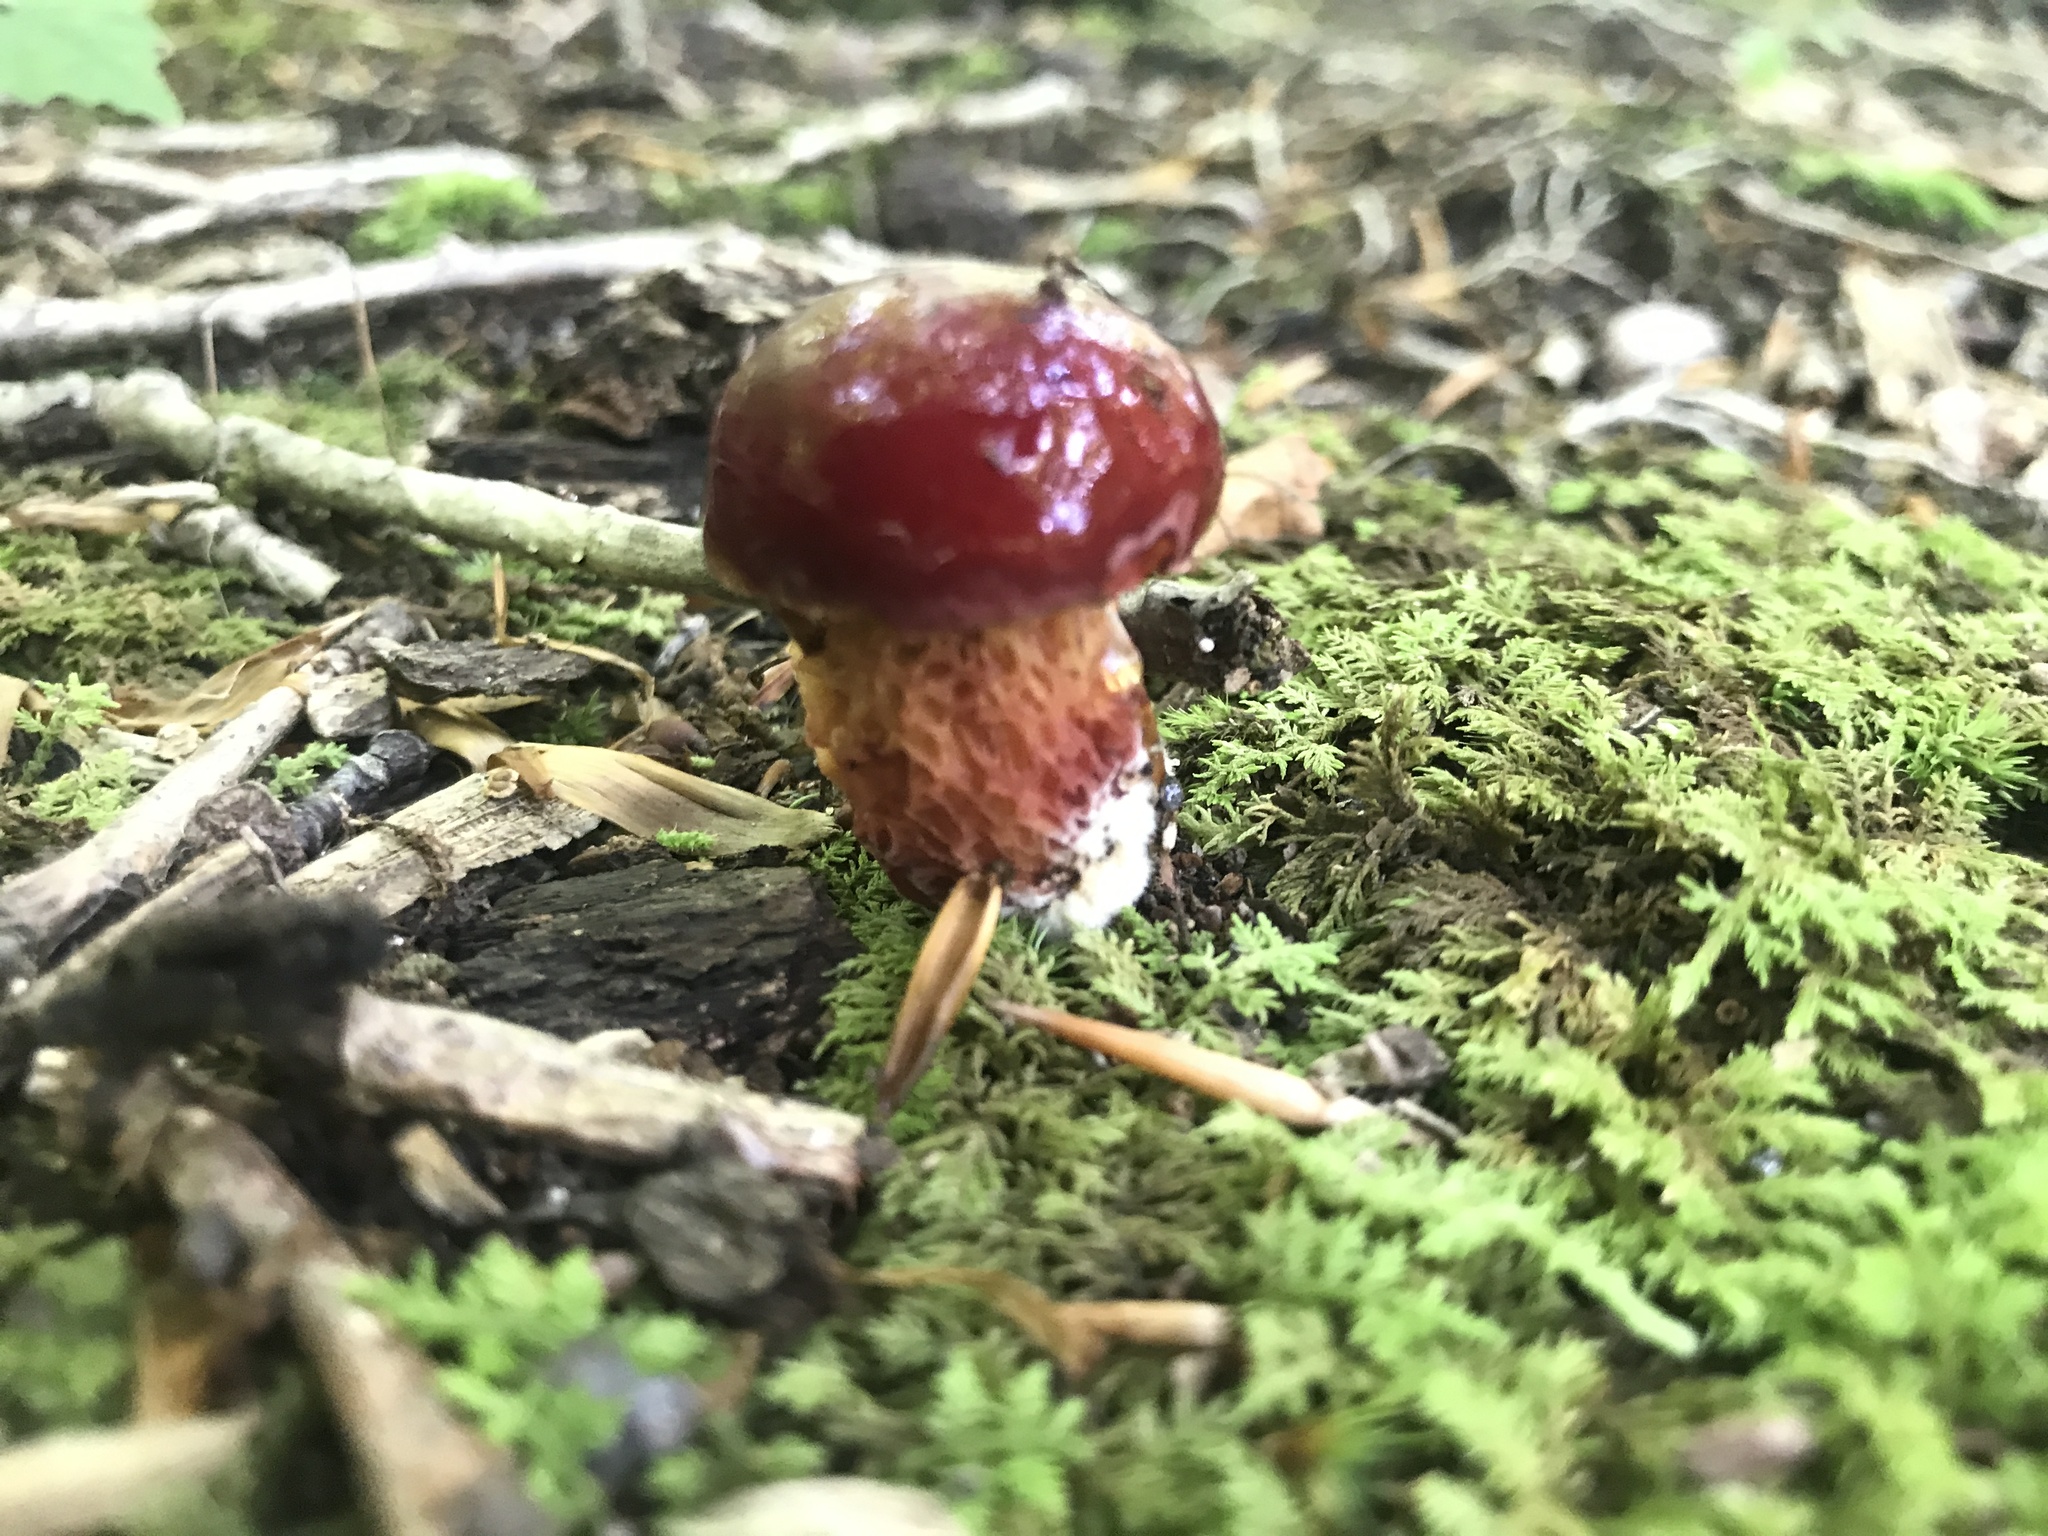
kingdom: Fungi
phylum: Basidiomycota
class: Agaricomycetes
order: Boletales
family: Boletaceae
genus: Butyriboletus
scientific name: Butyriboletus frostii
